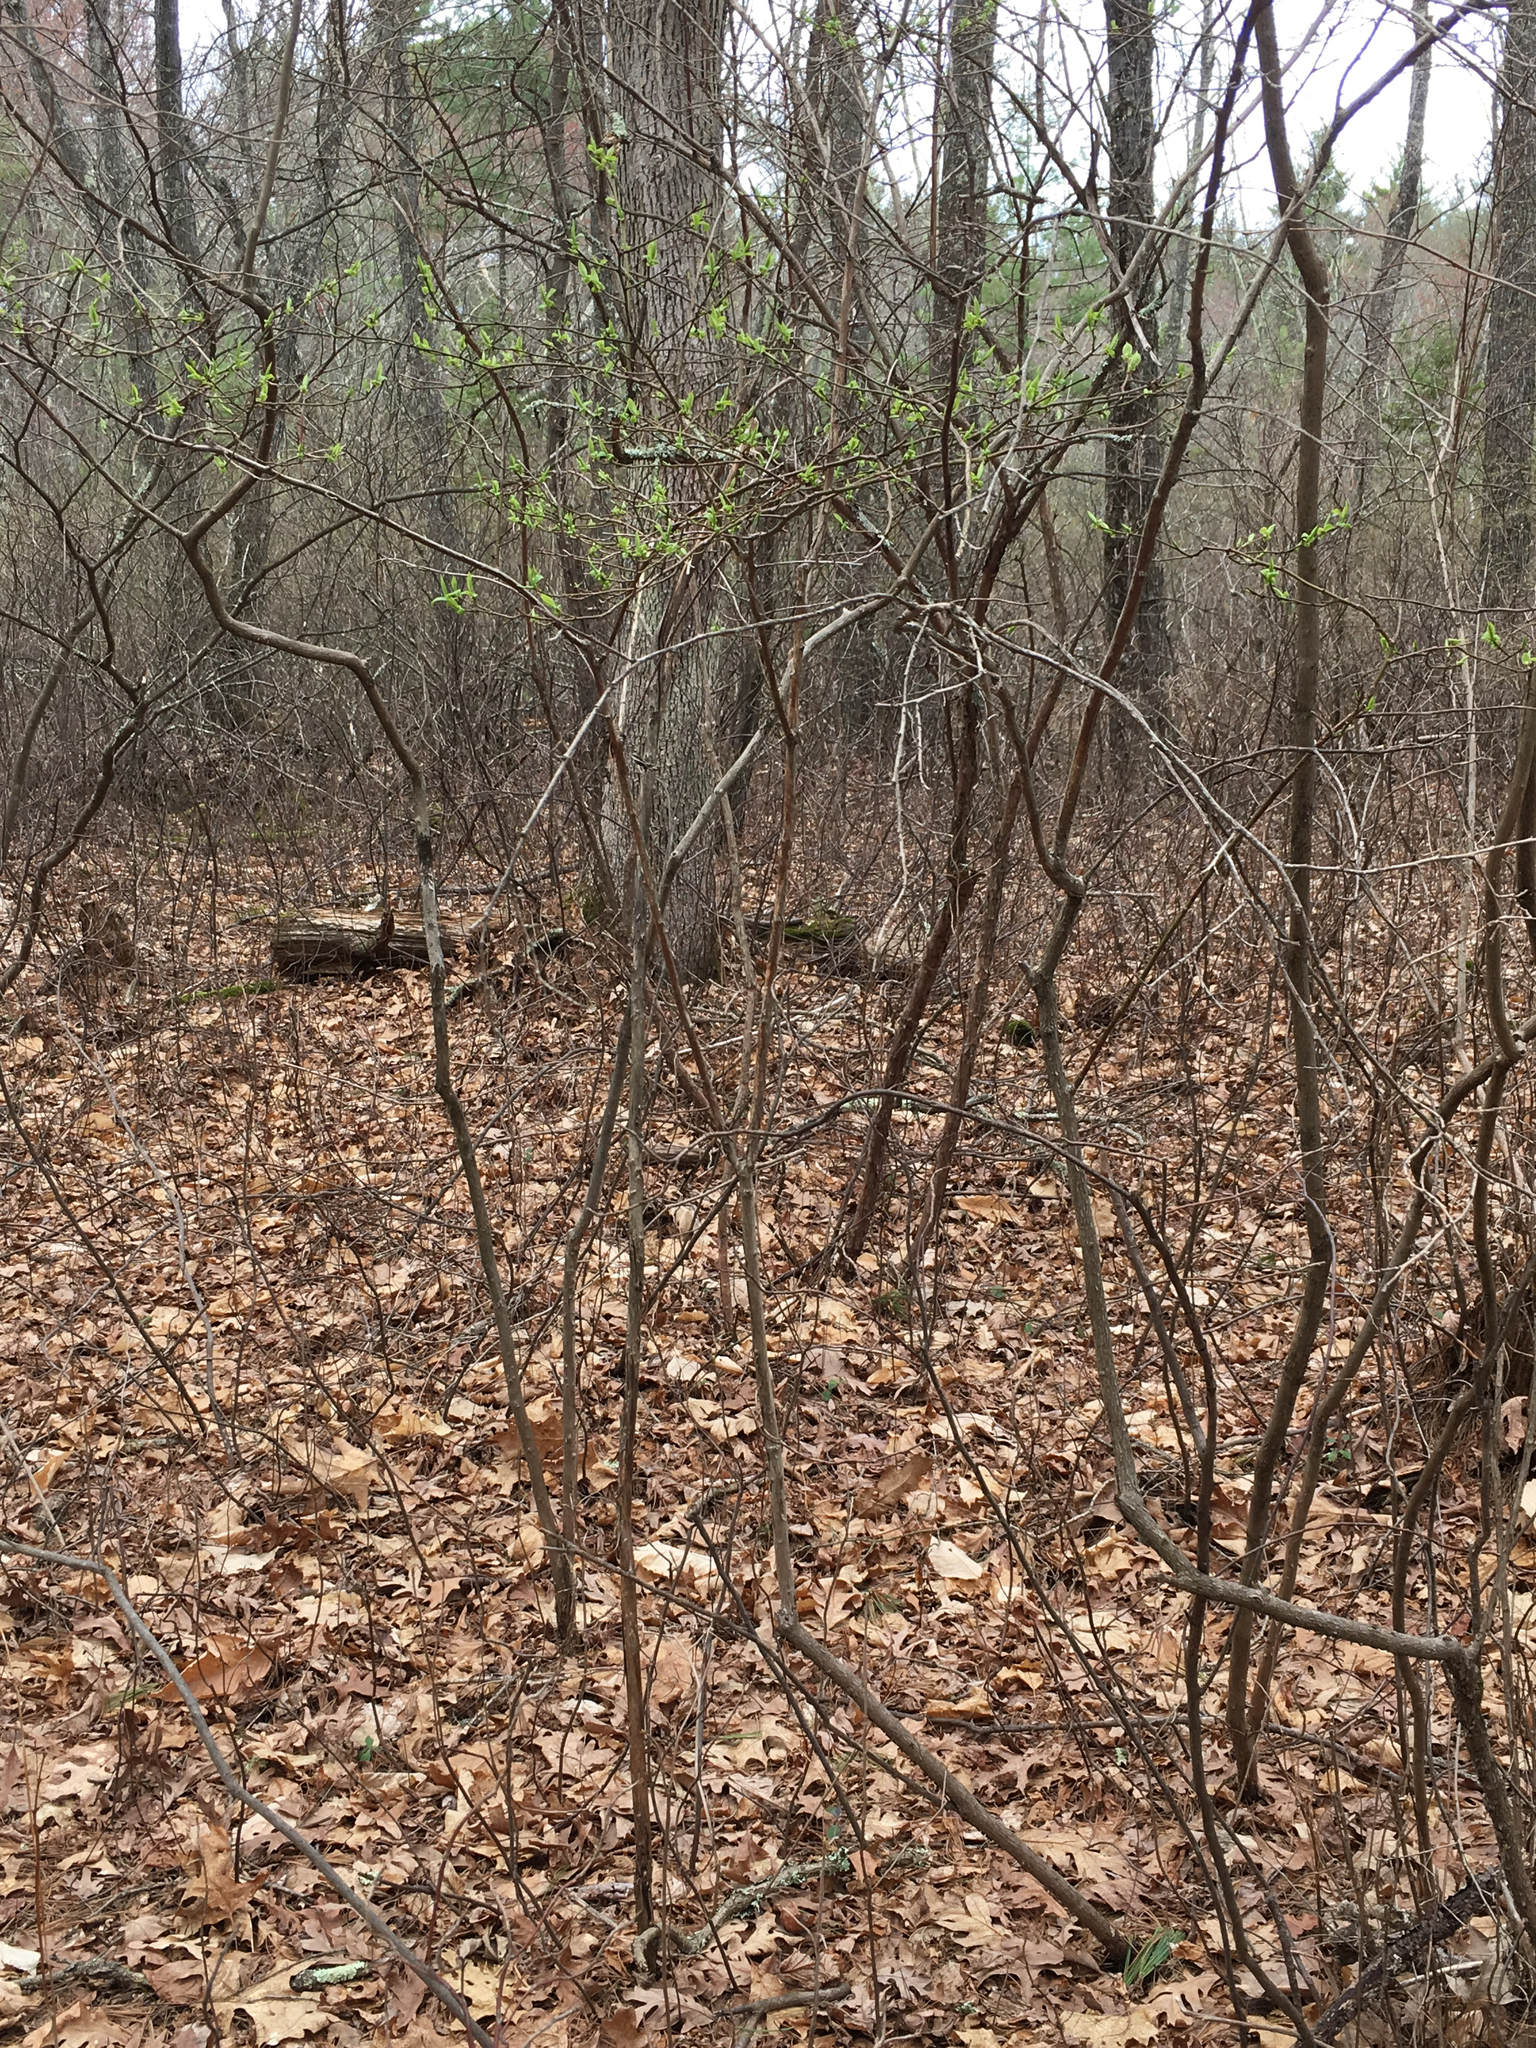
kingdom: Plantae
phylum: Tracheophyta
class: Magnoliopsida
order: Ericales
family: Ericaceae
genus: Vaccinium
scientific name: Vaccinium corymbosum
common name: Blueberry
